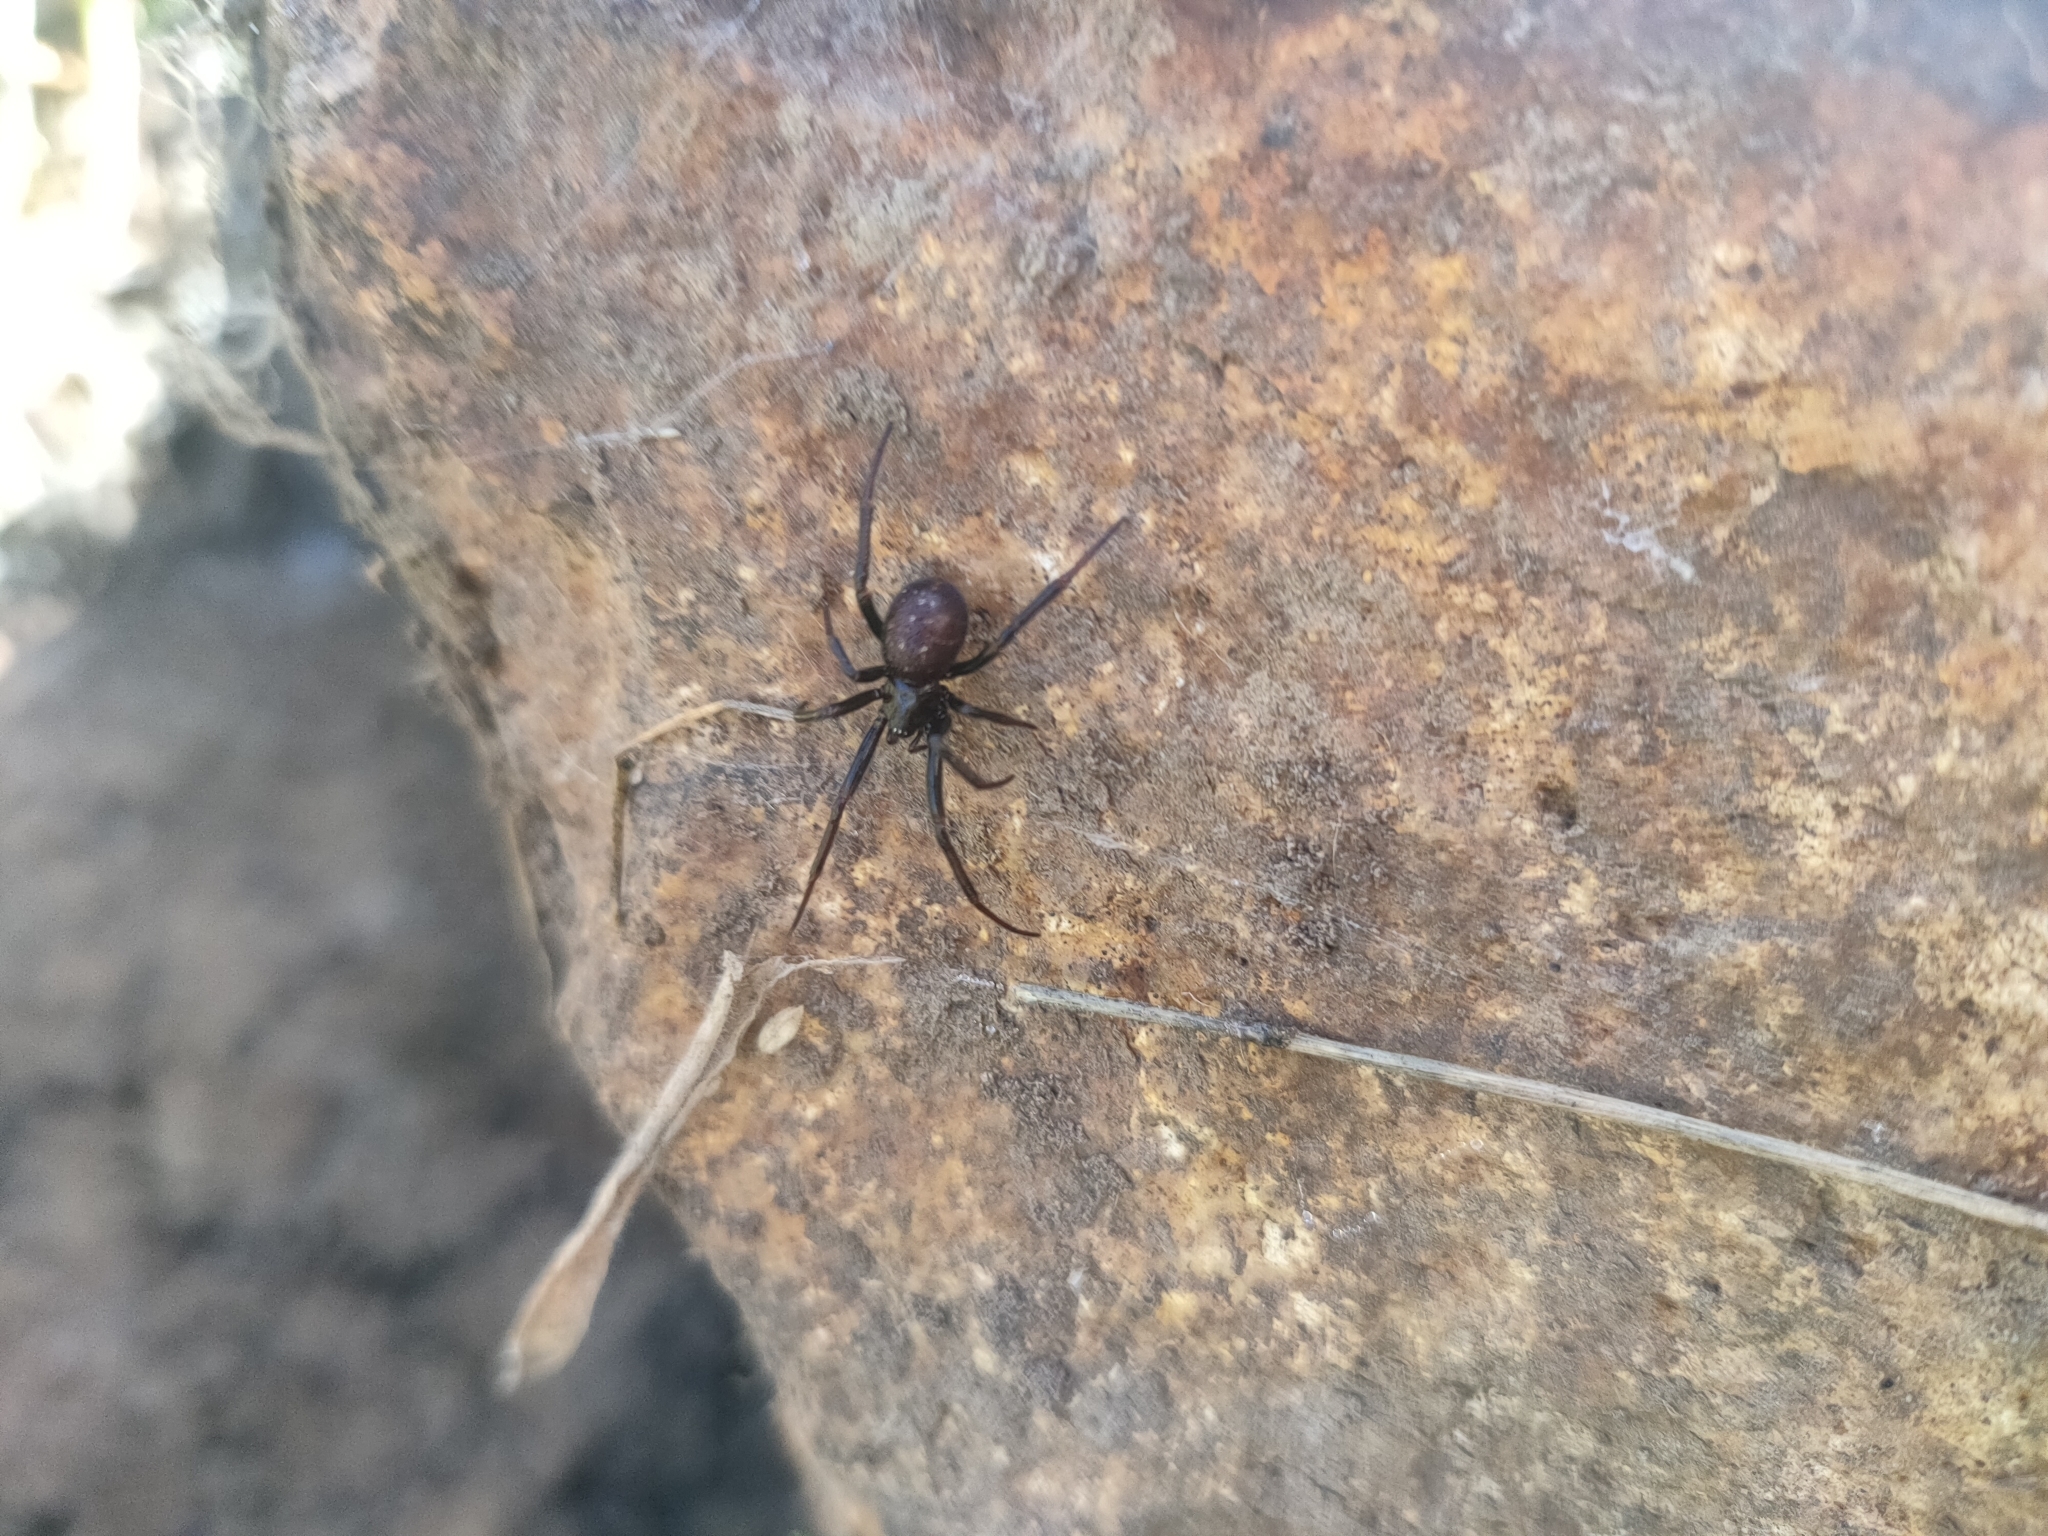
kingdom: Animalia
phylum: Arthropoda
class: Arachnida
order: Araneae
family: Theridiidae
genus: Steatoda
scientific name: Steatoda capensis
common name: Cobweb weaver
